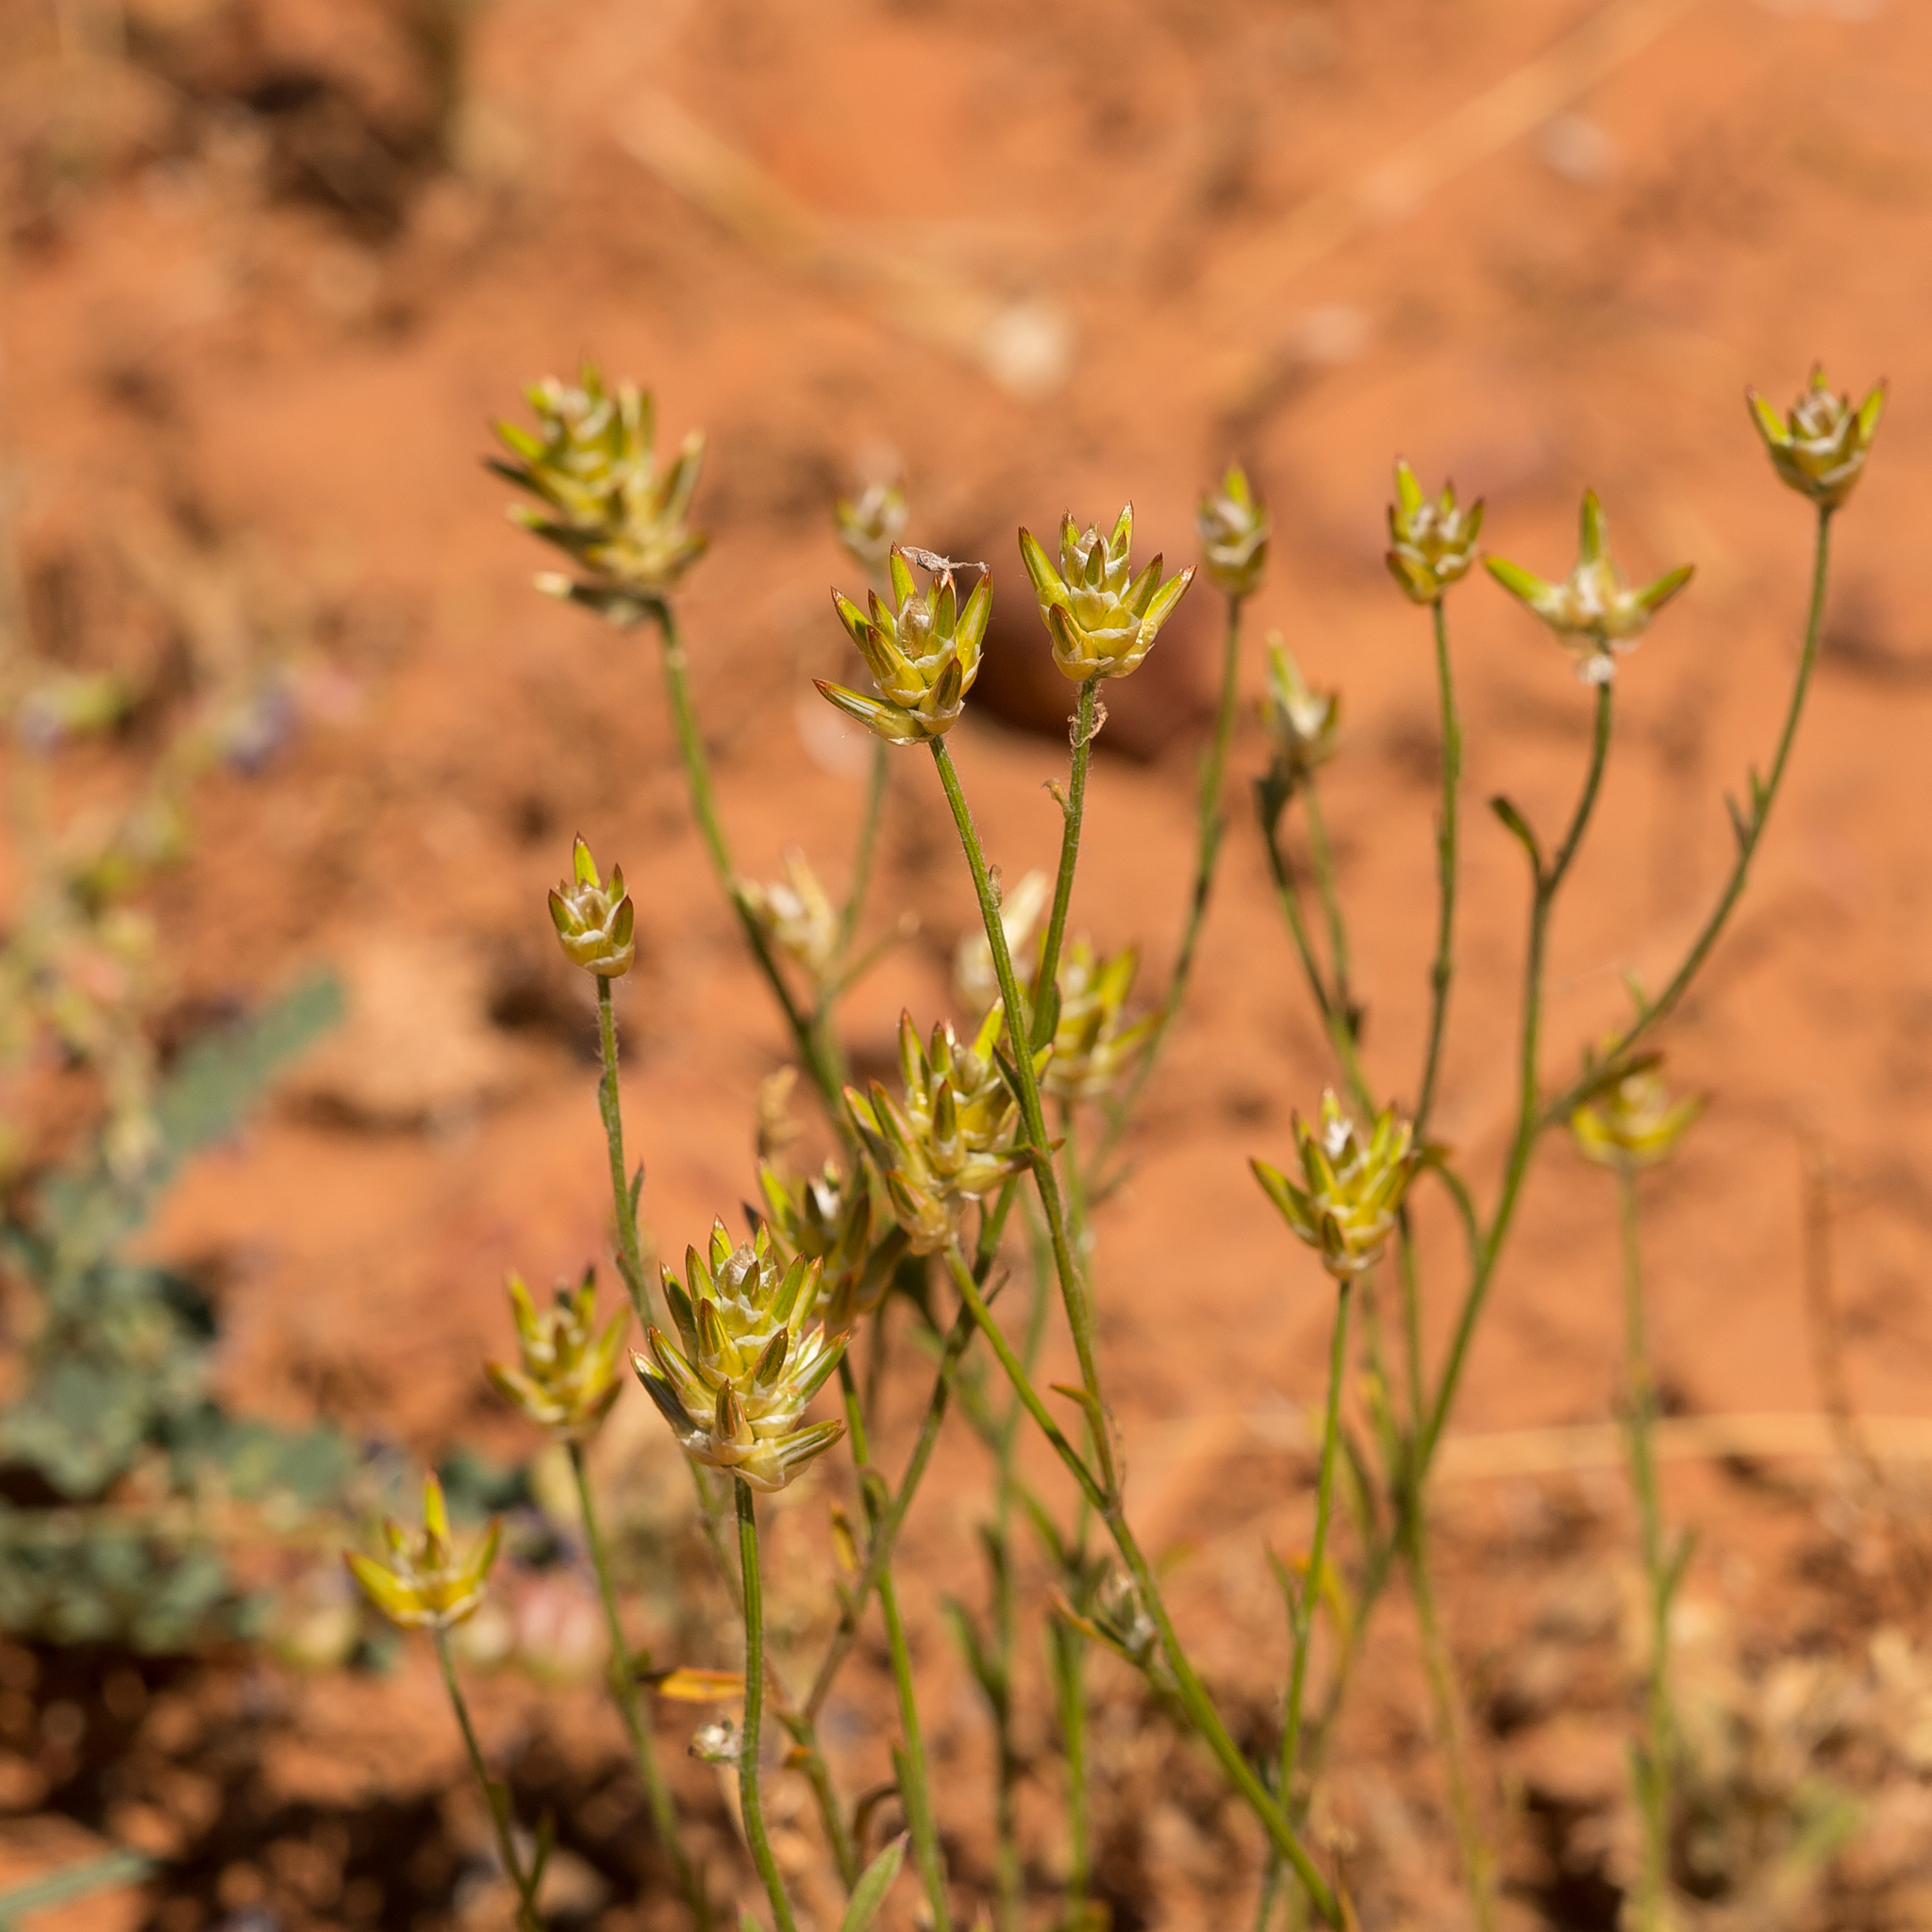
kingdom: Plantae
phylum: Tracheophyta
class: Magnoliopsida
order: Caryophyllales
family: Amaranthaceae
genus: Ptilotus
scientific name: Ptilotus modestus
